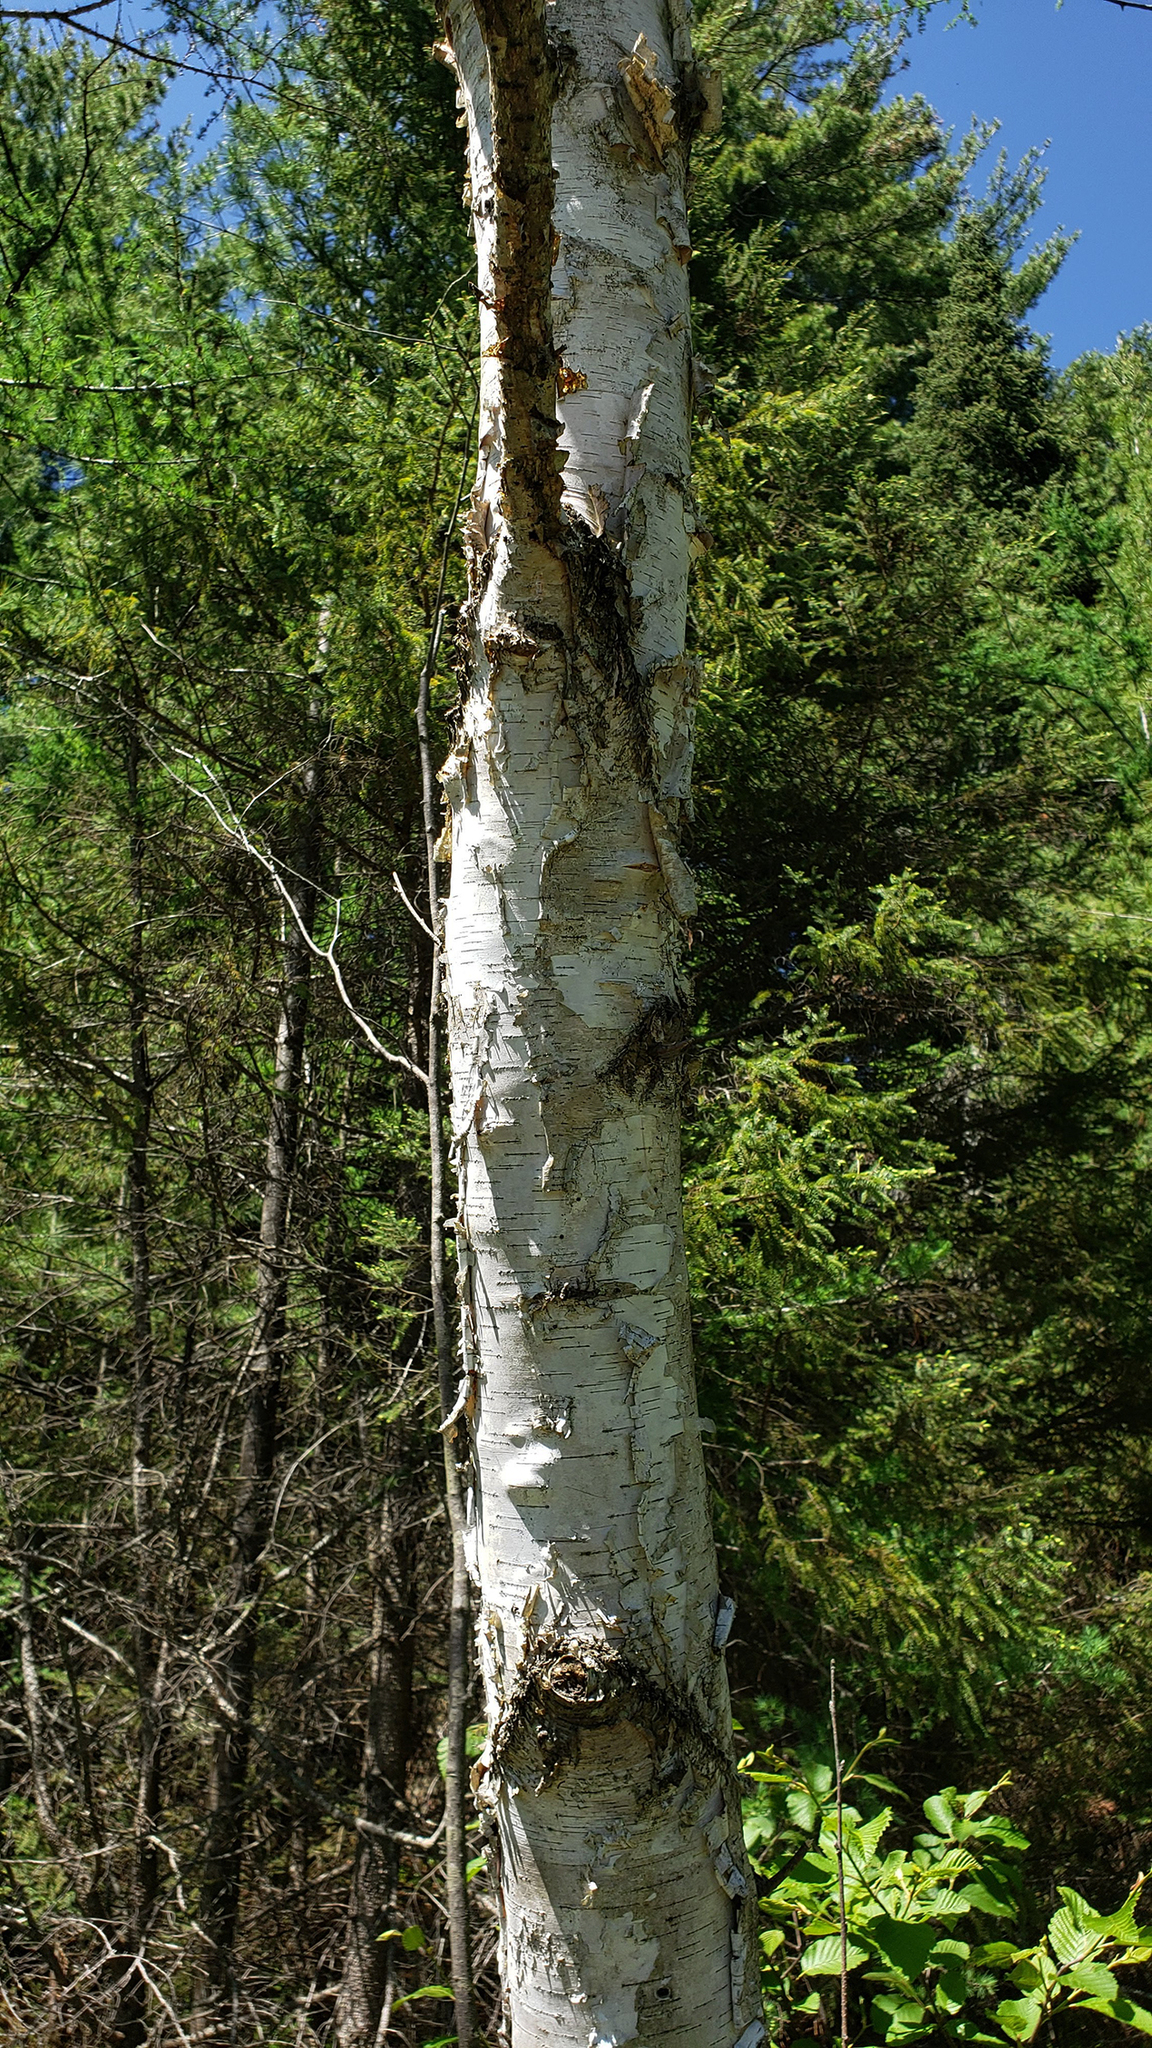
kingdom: Plantae
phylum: Tracheophyta
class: Magnoliopsida
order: Fagales
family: Betulaceae
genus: Betula
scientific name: Betula papyrifera
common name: Paper birch
